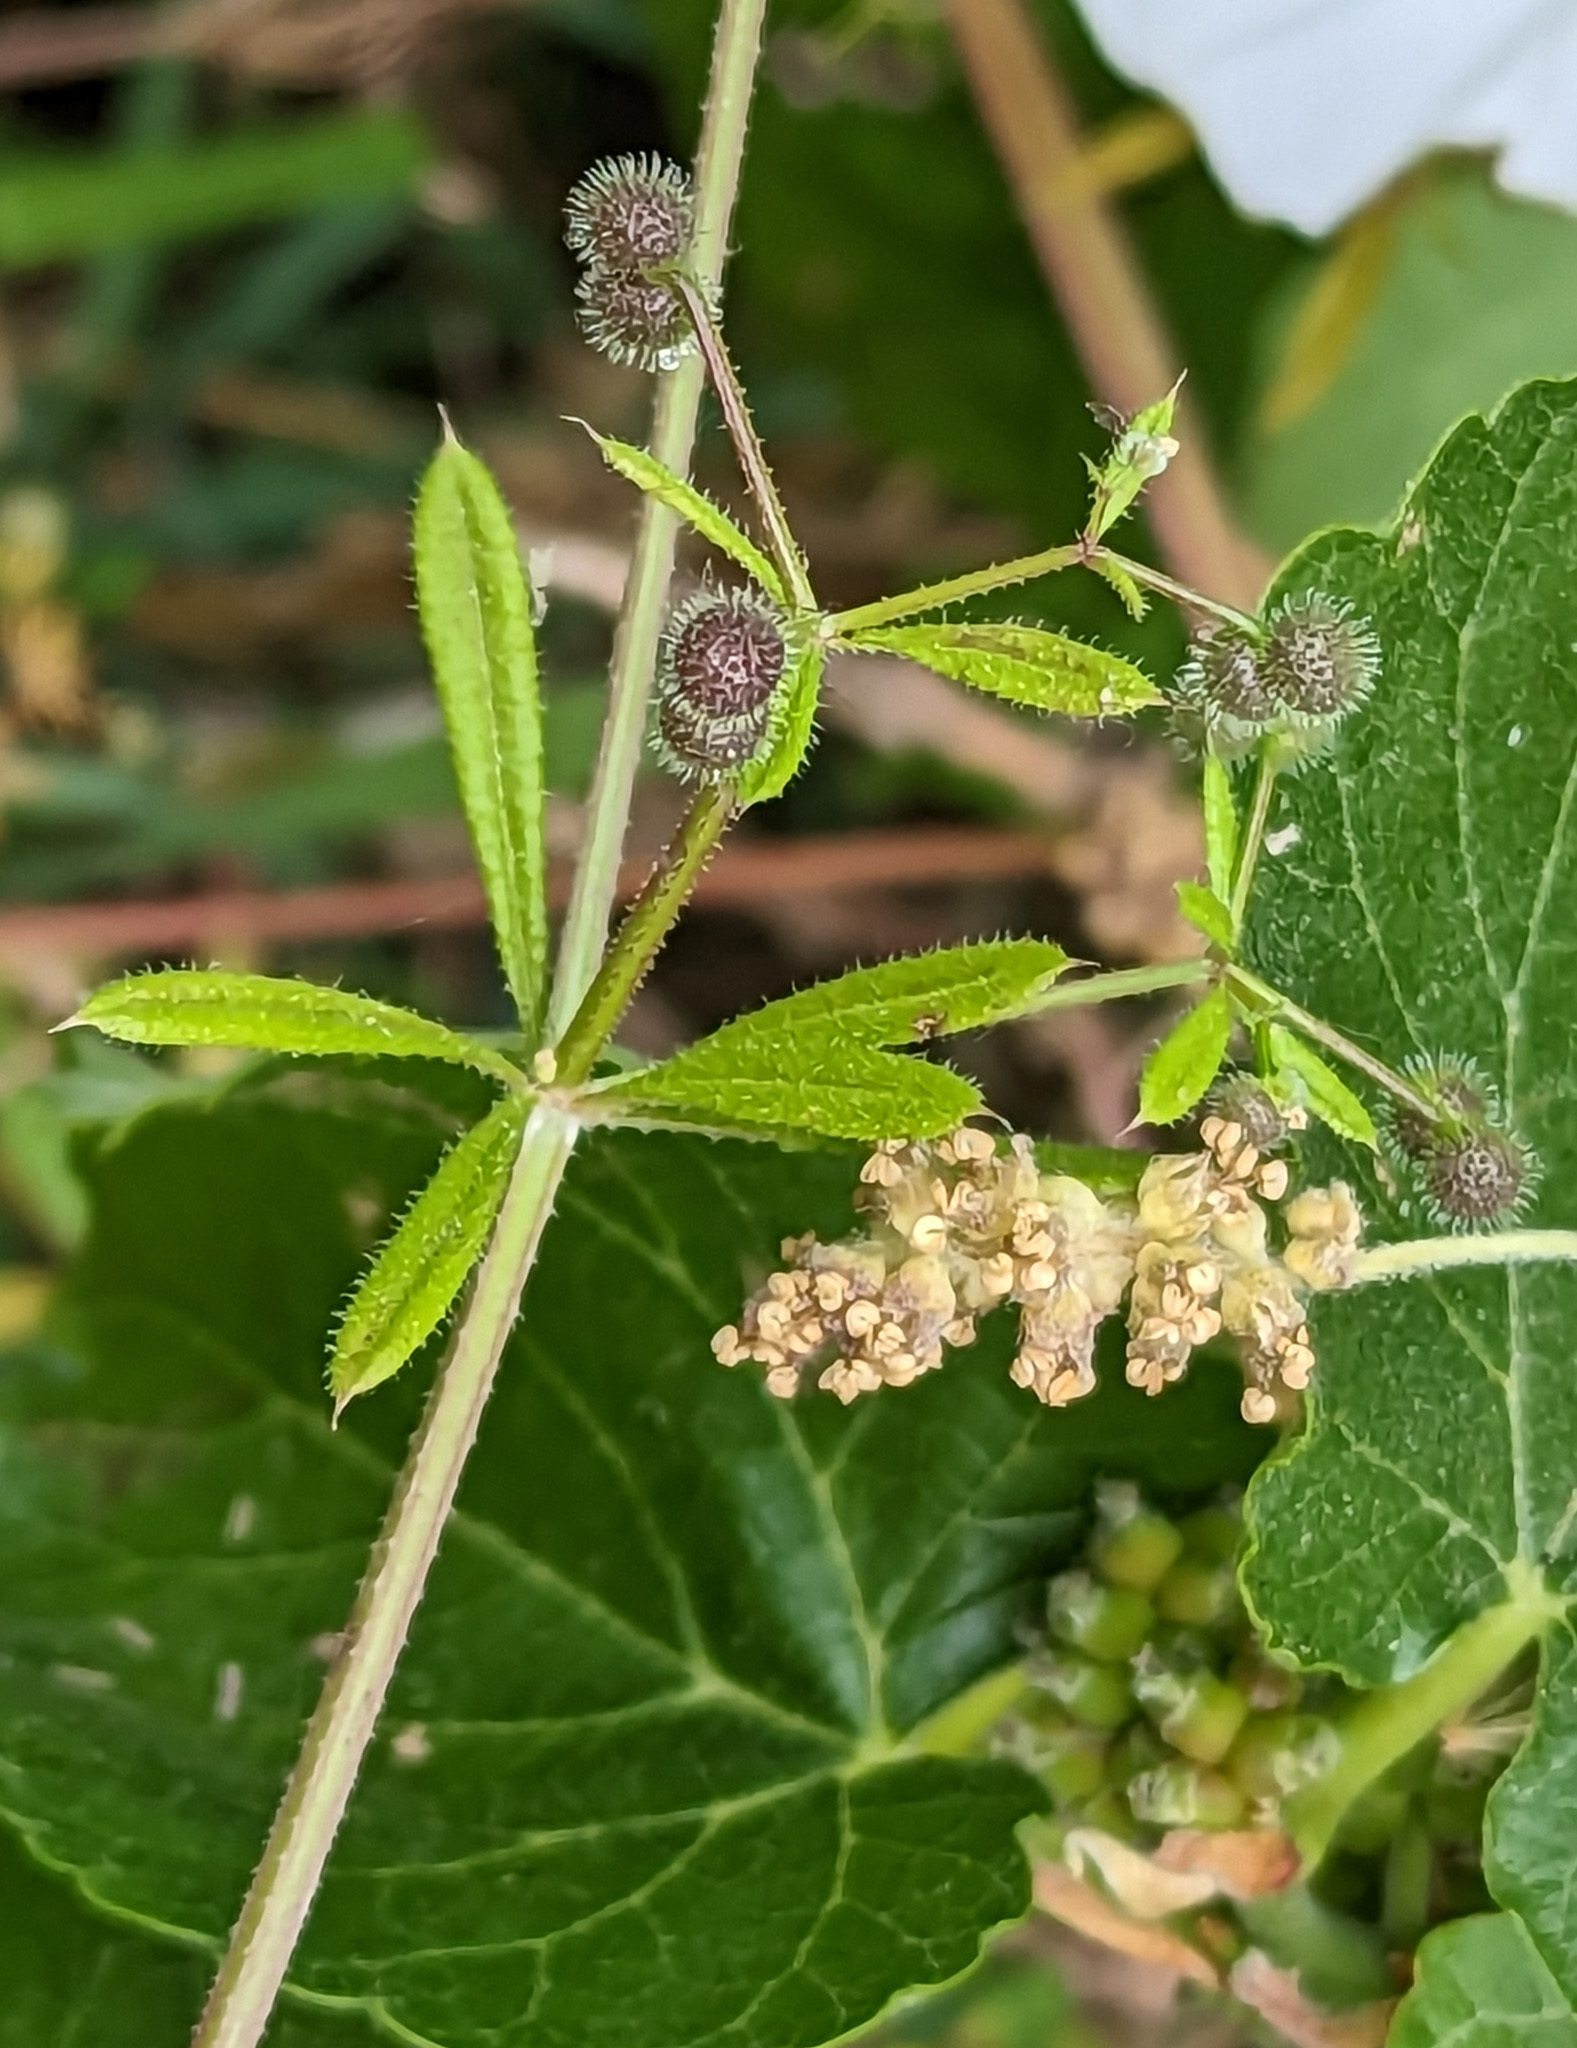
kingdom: Plantae
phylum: Tracheophyta
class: Magnoliopsida
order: Gentianales
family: Rubiaceae
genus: Galium
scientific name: Galium aparine
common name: Cleavers
